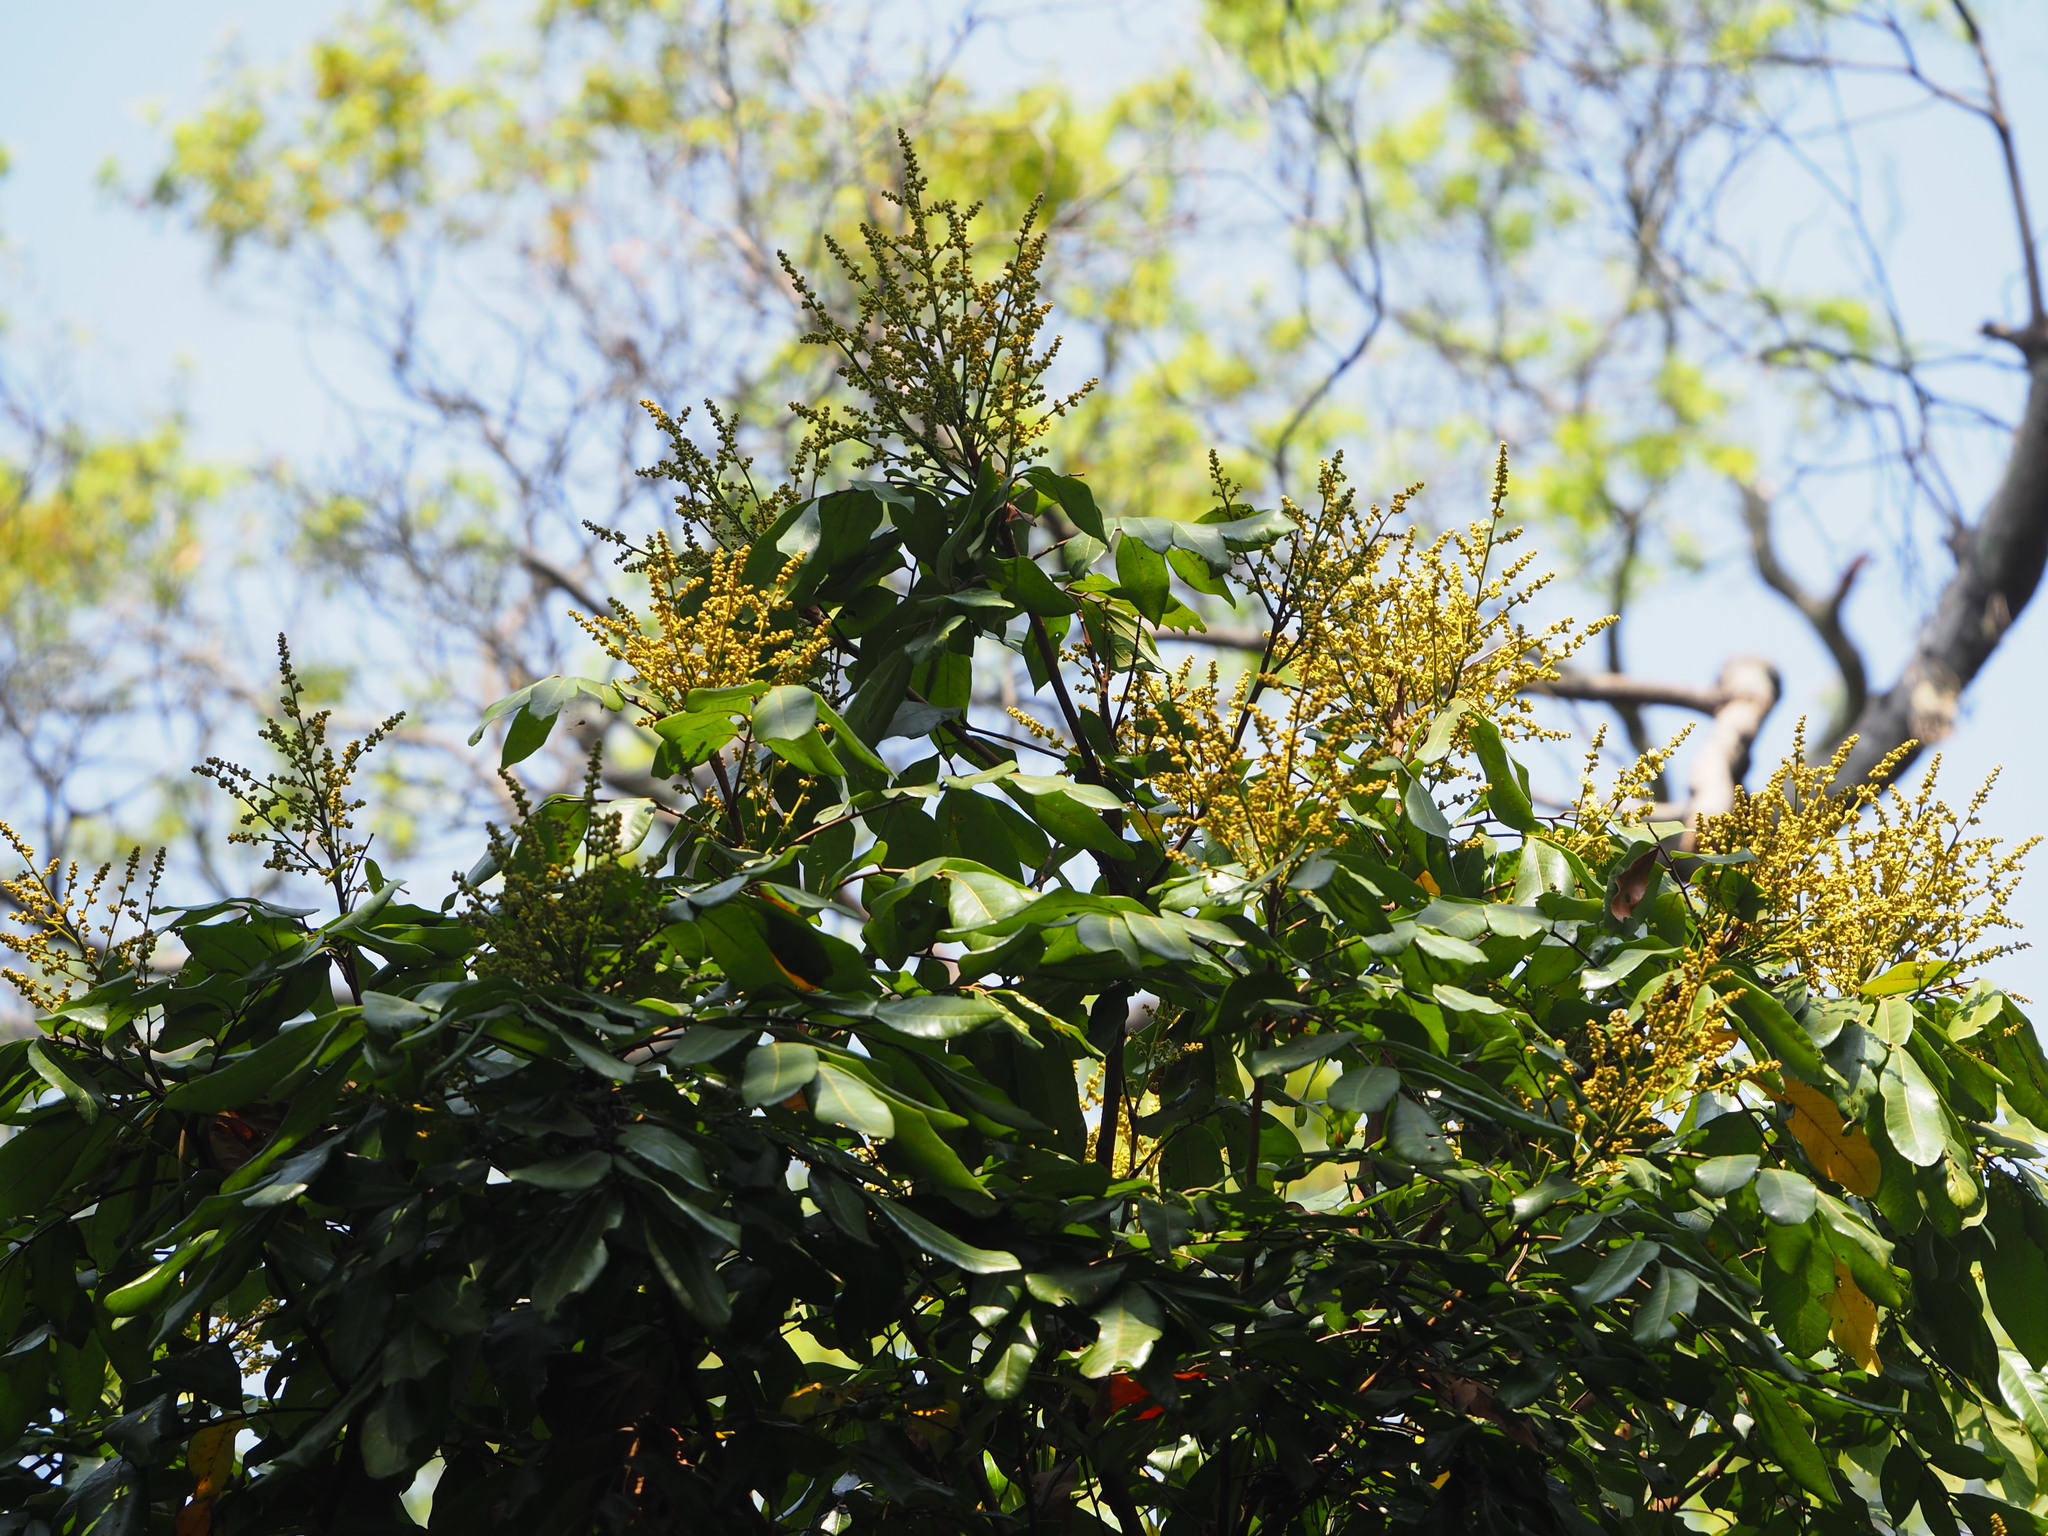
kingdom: Plantae
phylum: Tracheophyta
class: Magnoliopsida
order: Sapindales
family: Sapindaceae
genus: Dimocarpus
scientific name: Dimocarpus longan
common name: Longan
